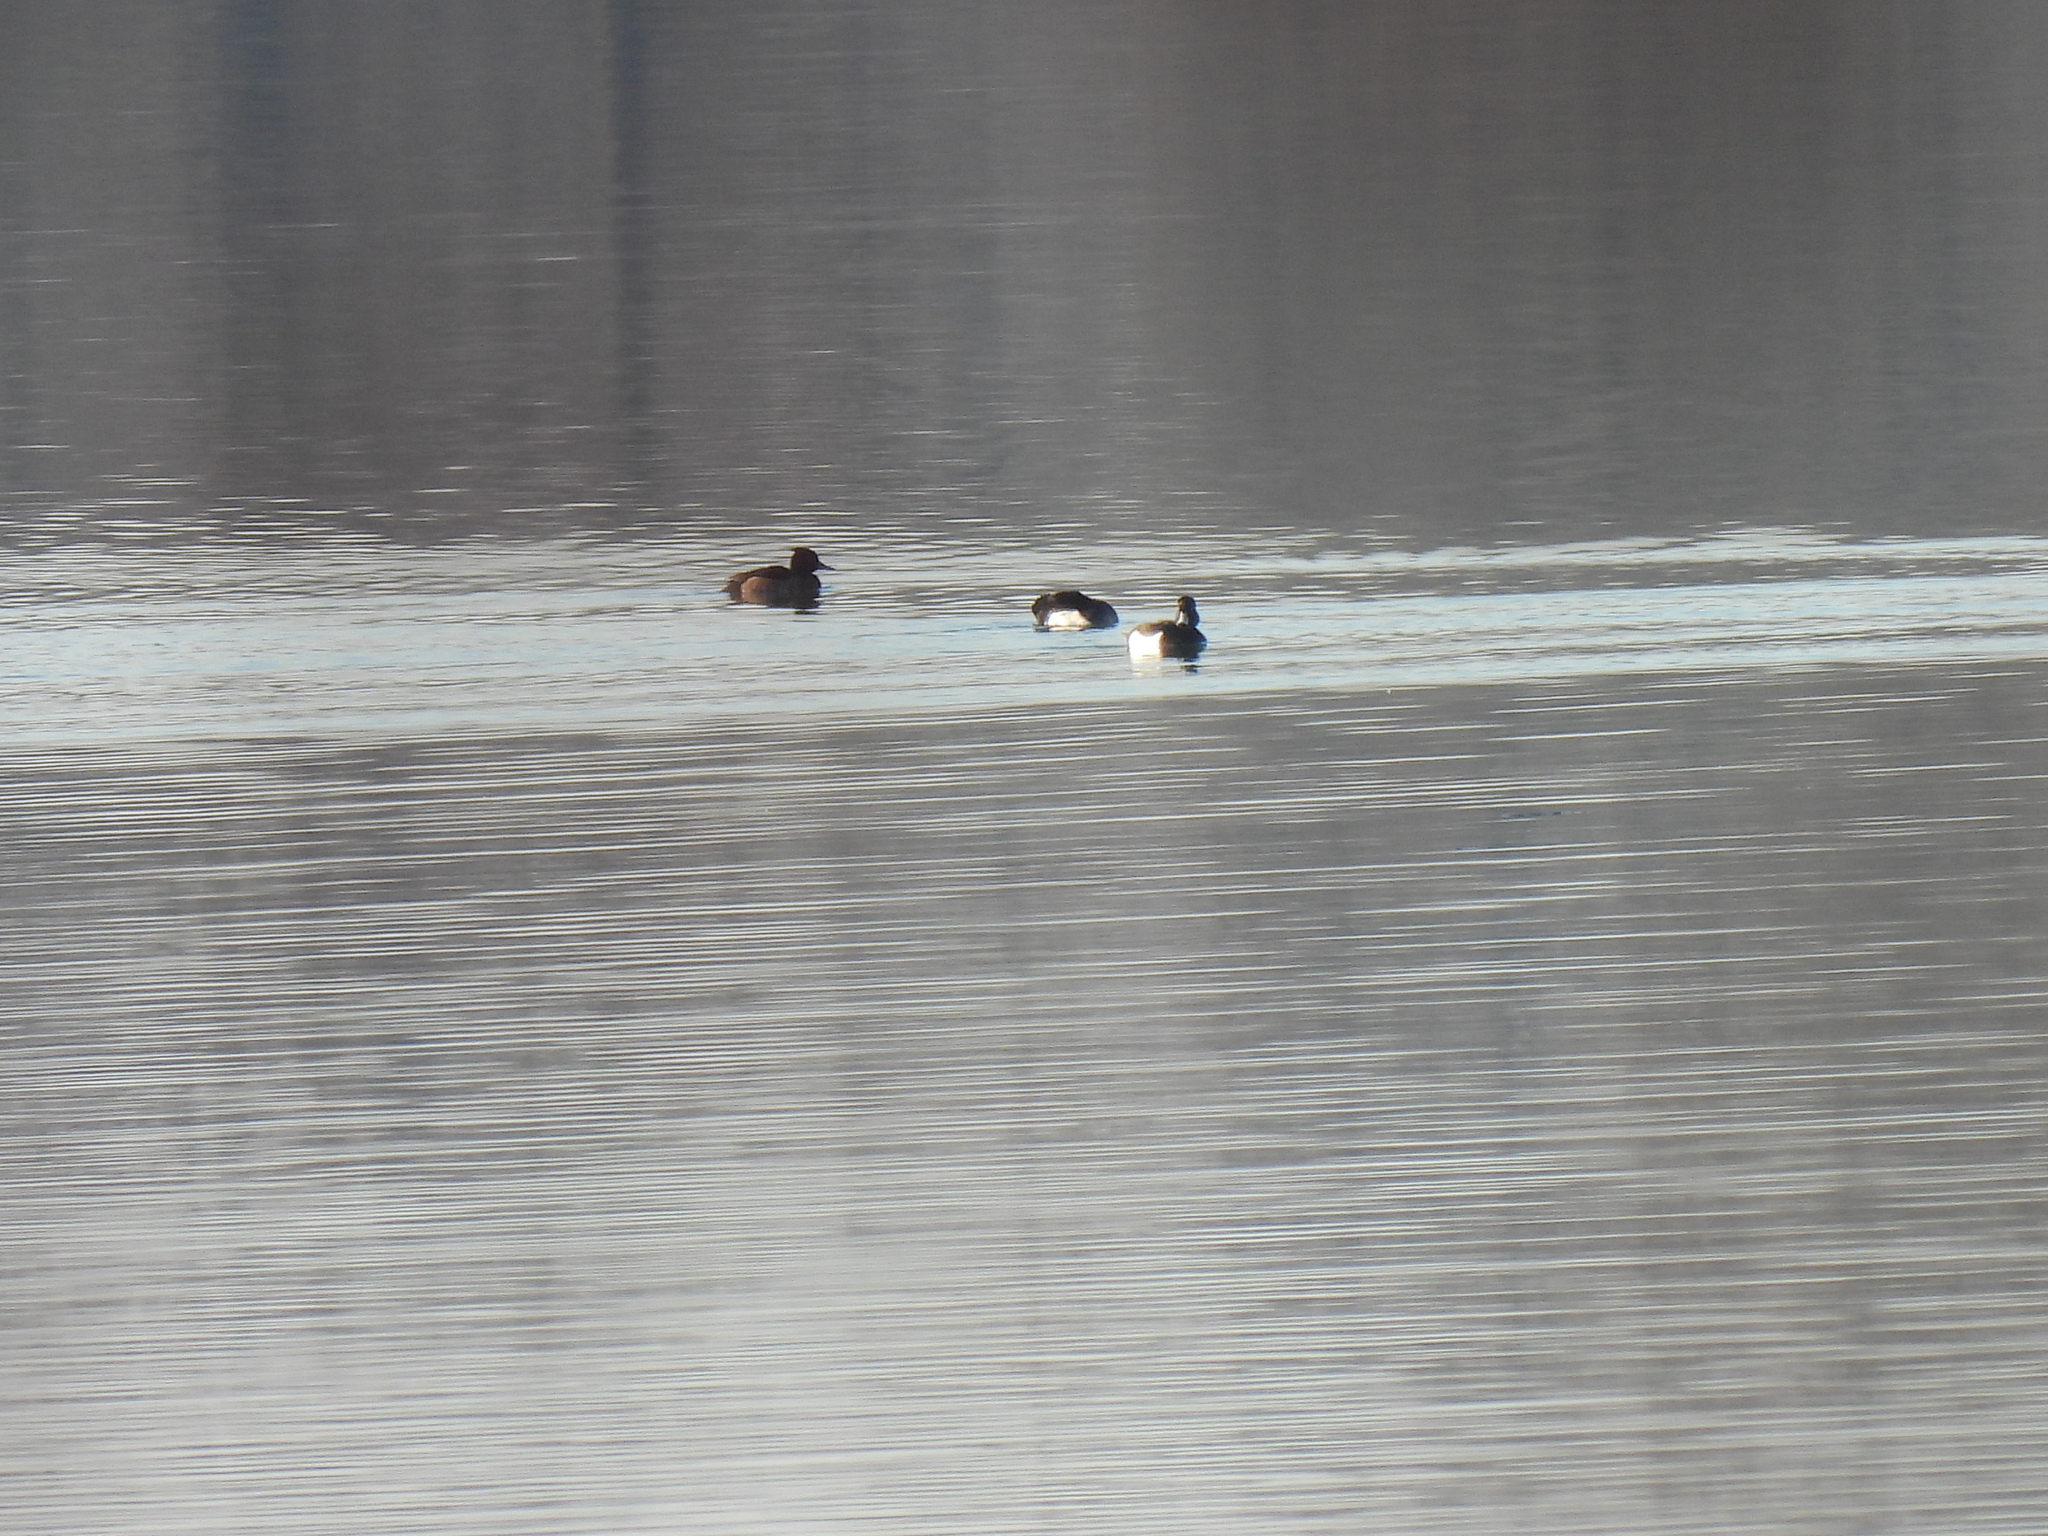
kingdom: Animalia
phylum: Chordata
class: Aves
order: Anseriformes
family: Anatidae
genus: Aythya
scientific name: Aythya fuligula
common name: Tufted duck
